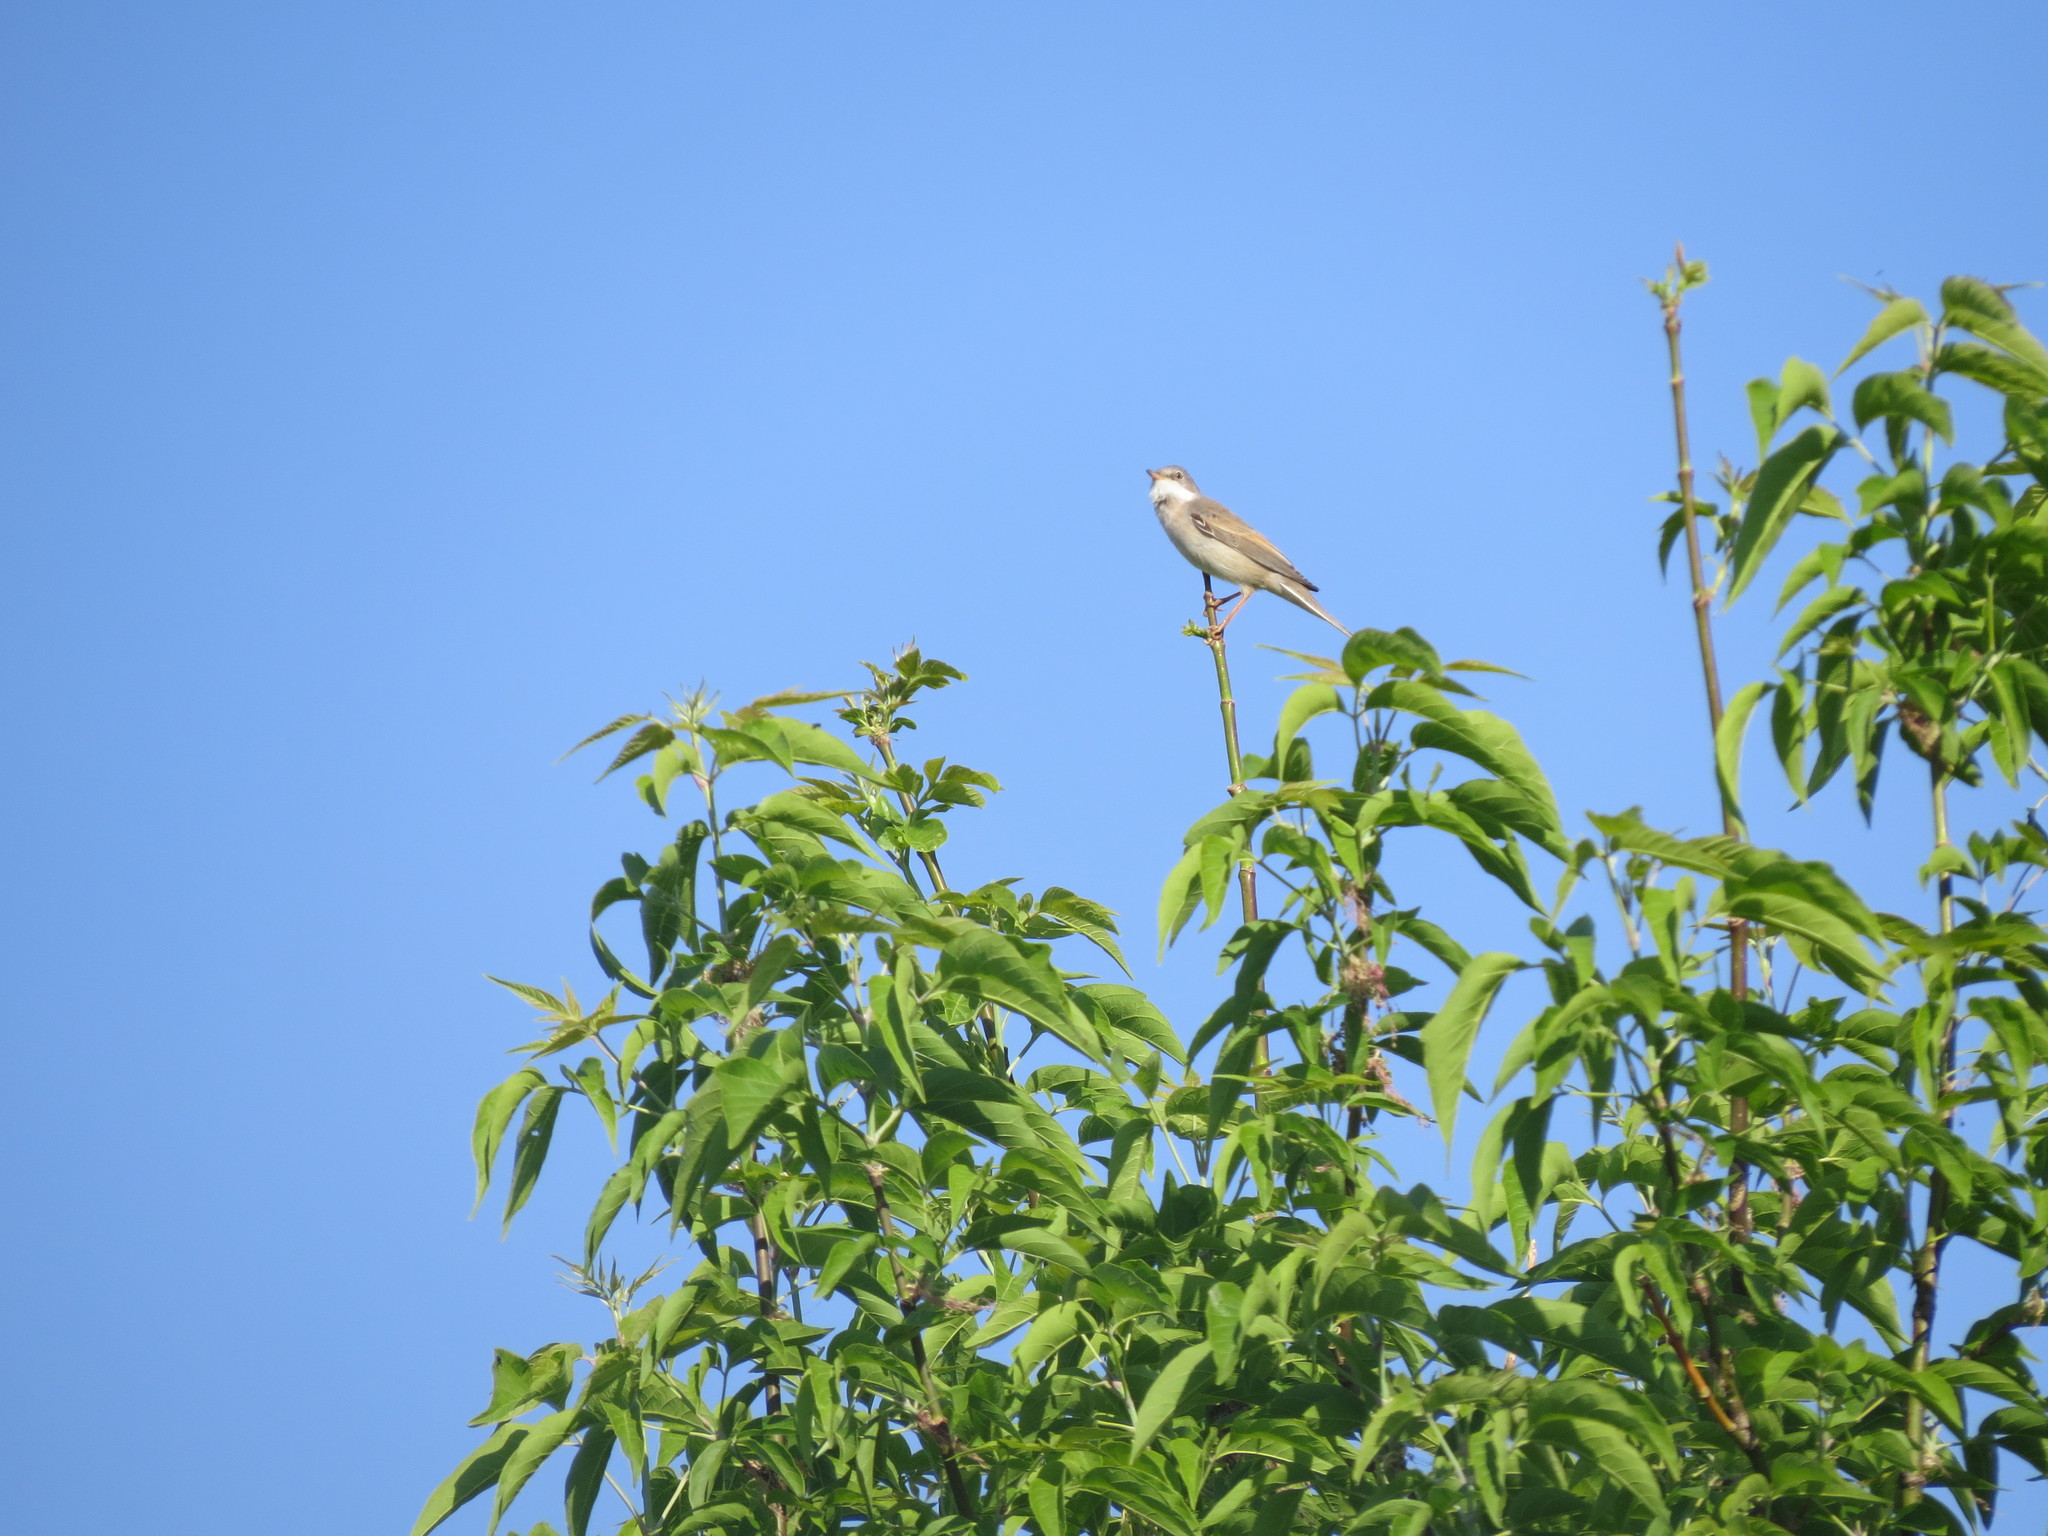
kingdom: Animalia
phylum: Chordata
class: Aves
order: Passeriformes
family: Sylviidae
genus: Sylvia
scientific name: Sylvia communis
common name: Common whitethroat
